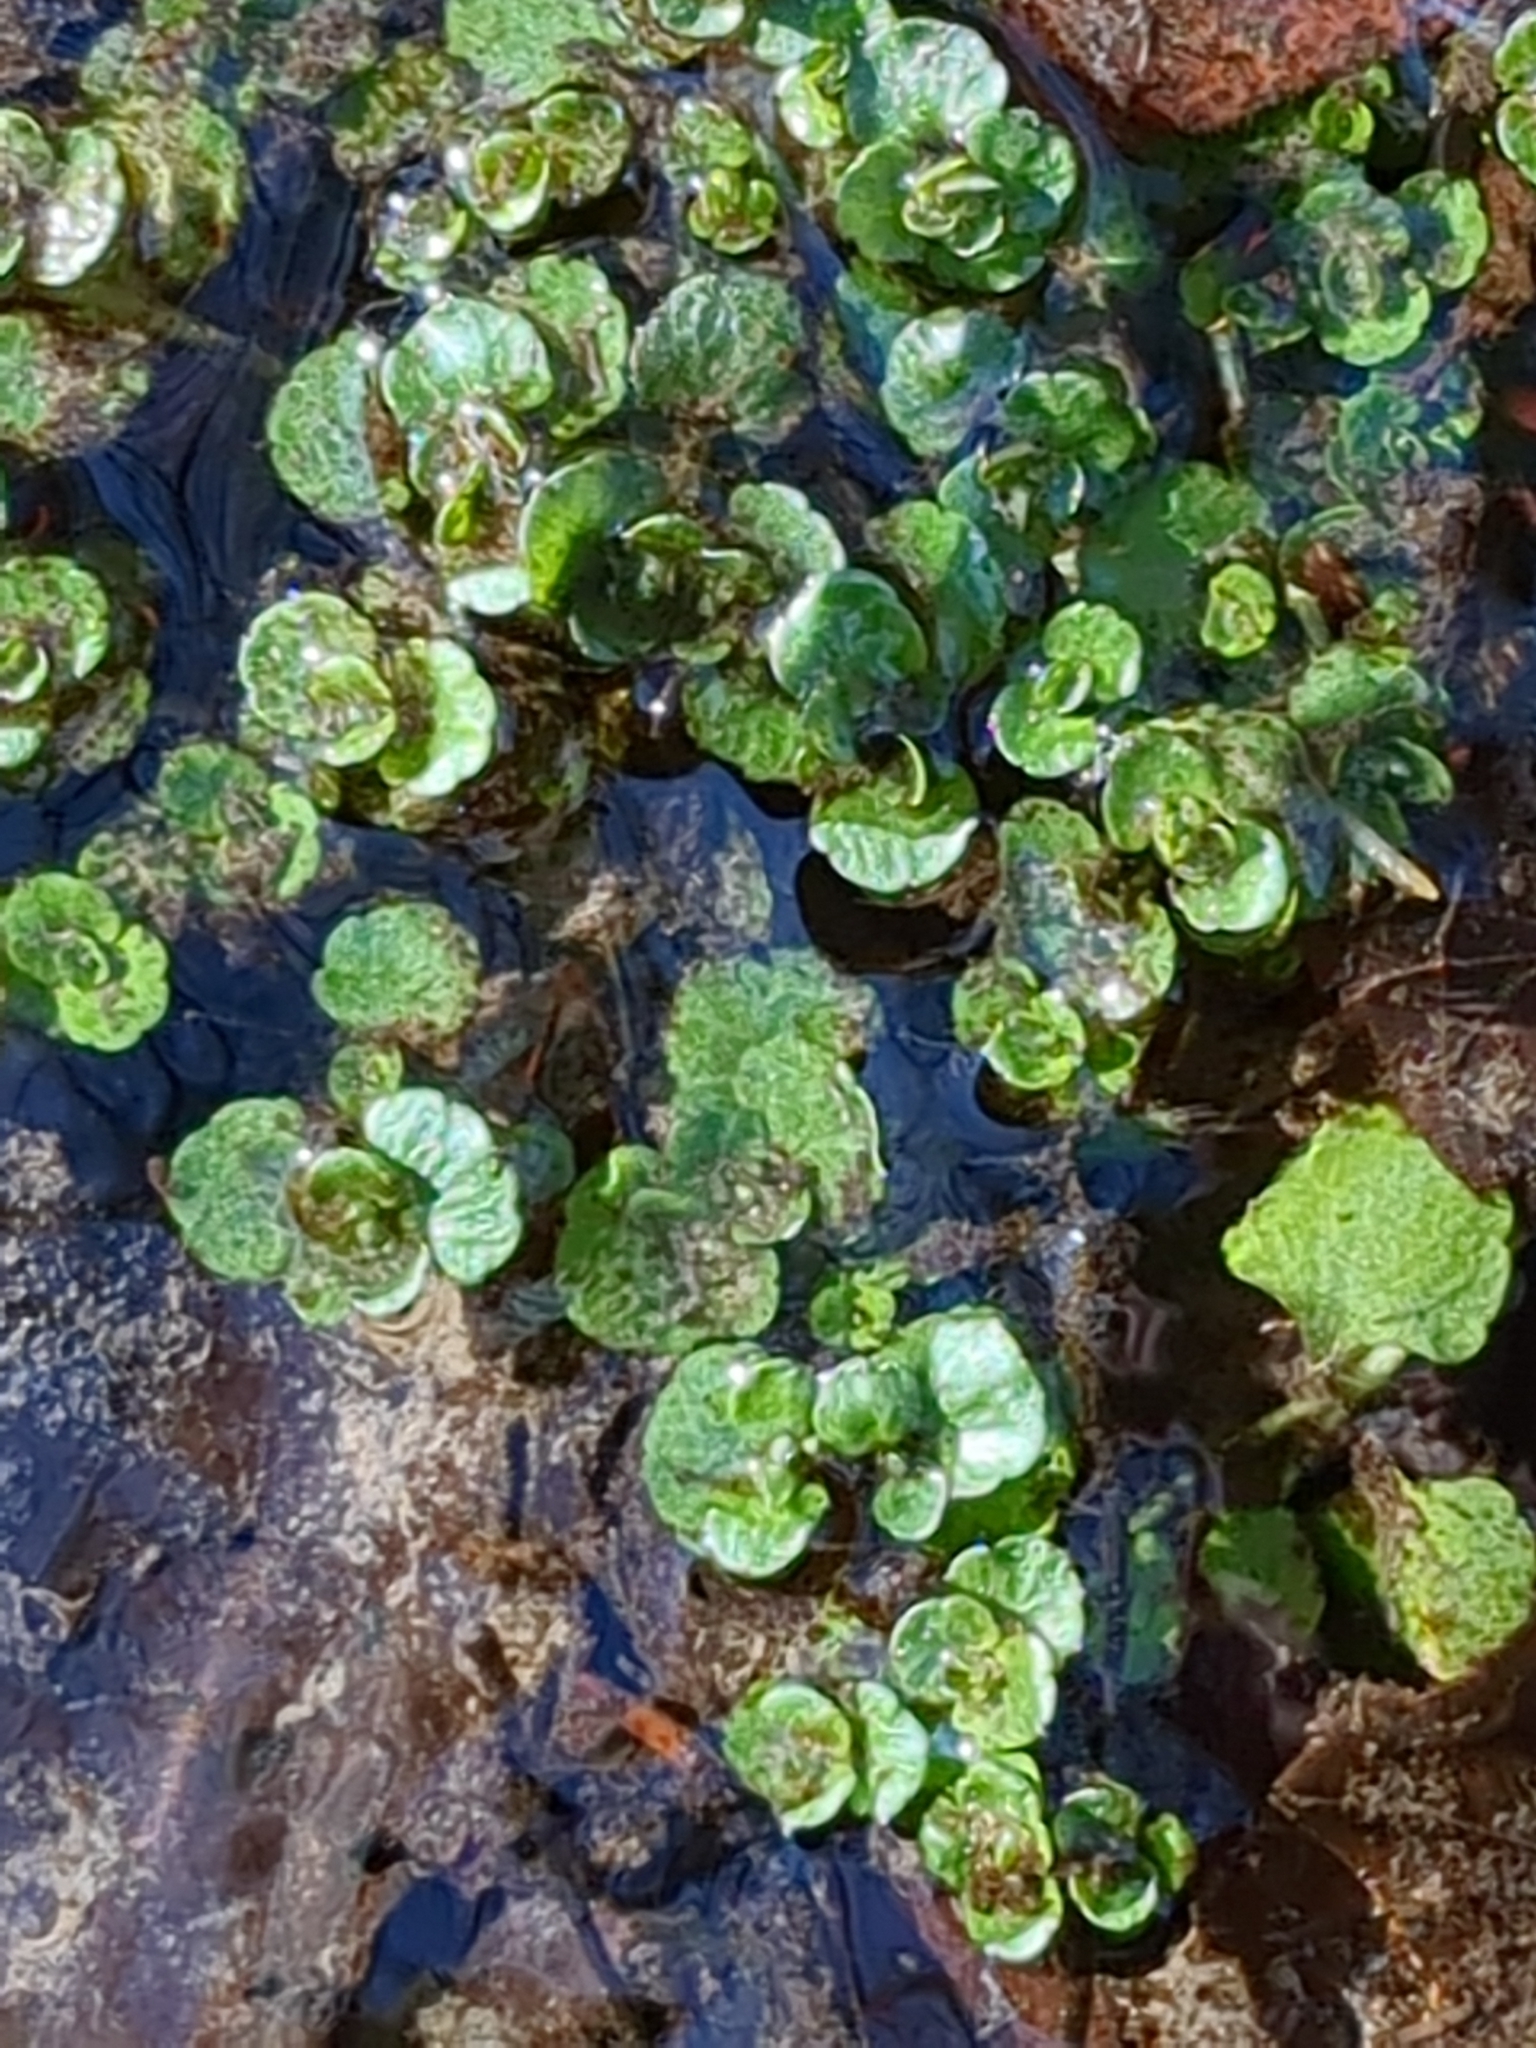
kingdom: Plantae
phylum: Tracheophyta
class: Magnoliopsida
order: Saxifragales
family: Saxifragaceae
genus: Chrysosplenium
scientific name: Chrysosplenium americanum
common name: American golden-saxifrage
